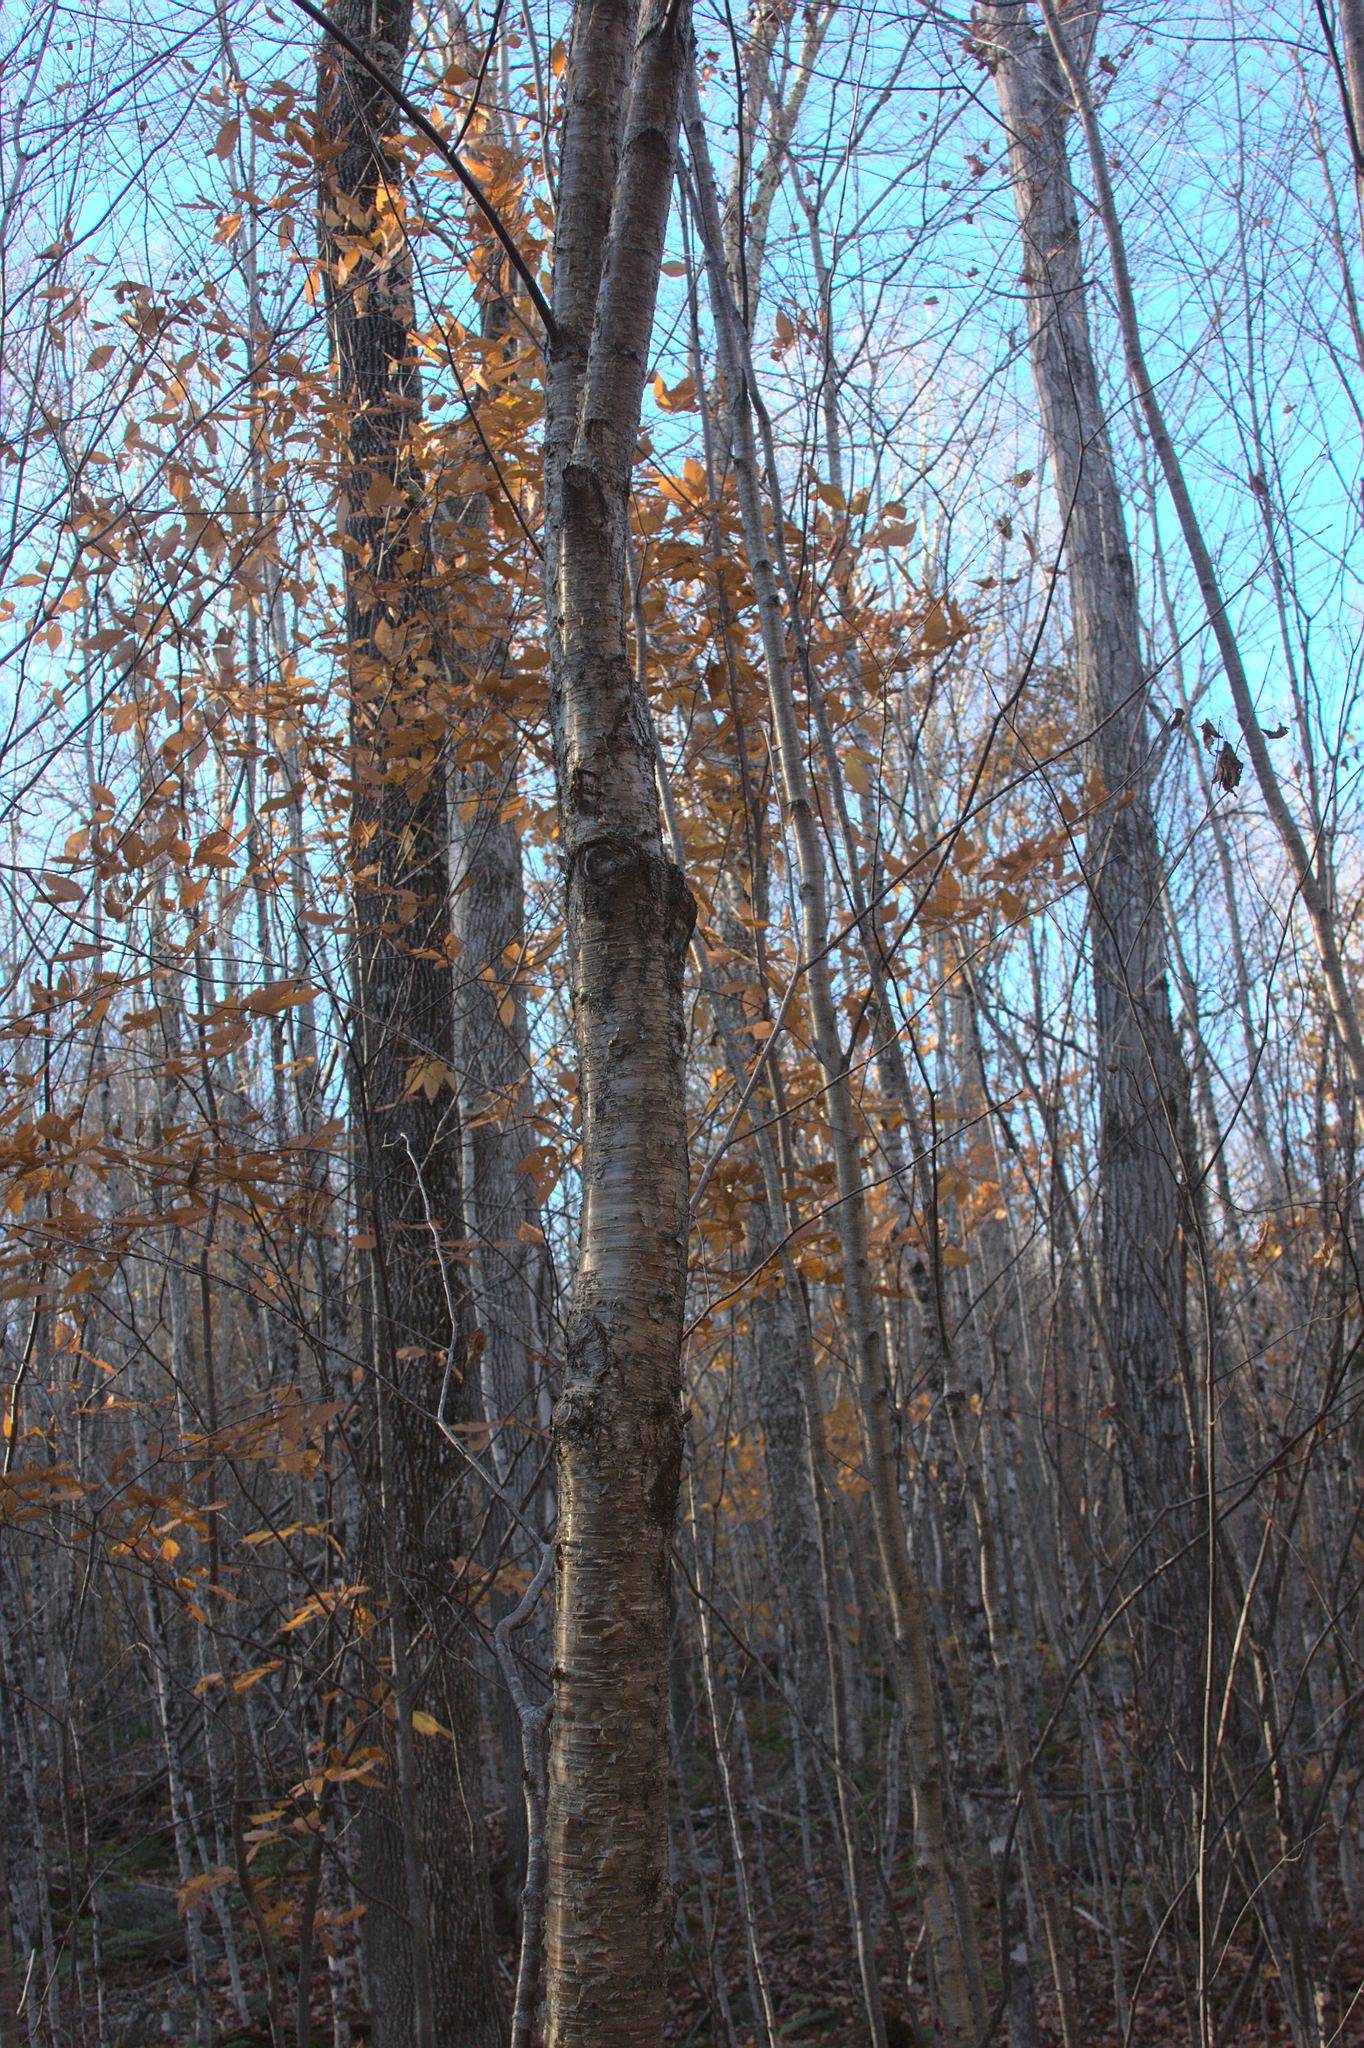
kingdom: Plantae
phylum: Tracheophyta
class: Magnoliopsida
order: Fagales
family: Betulaceae
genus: Betula
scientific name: Betula alleghaniensis
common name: Yellow birch
